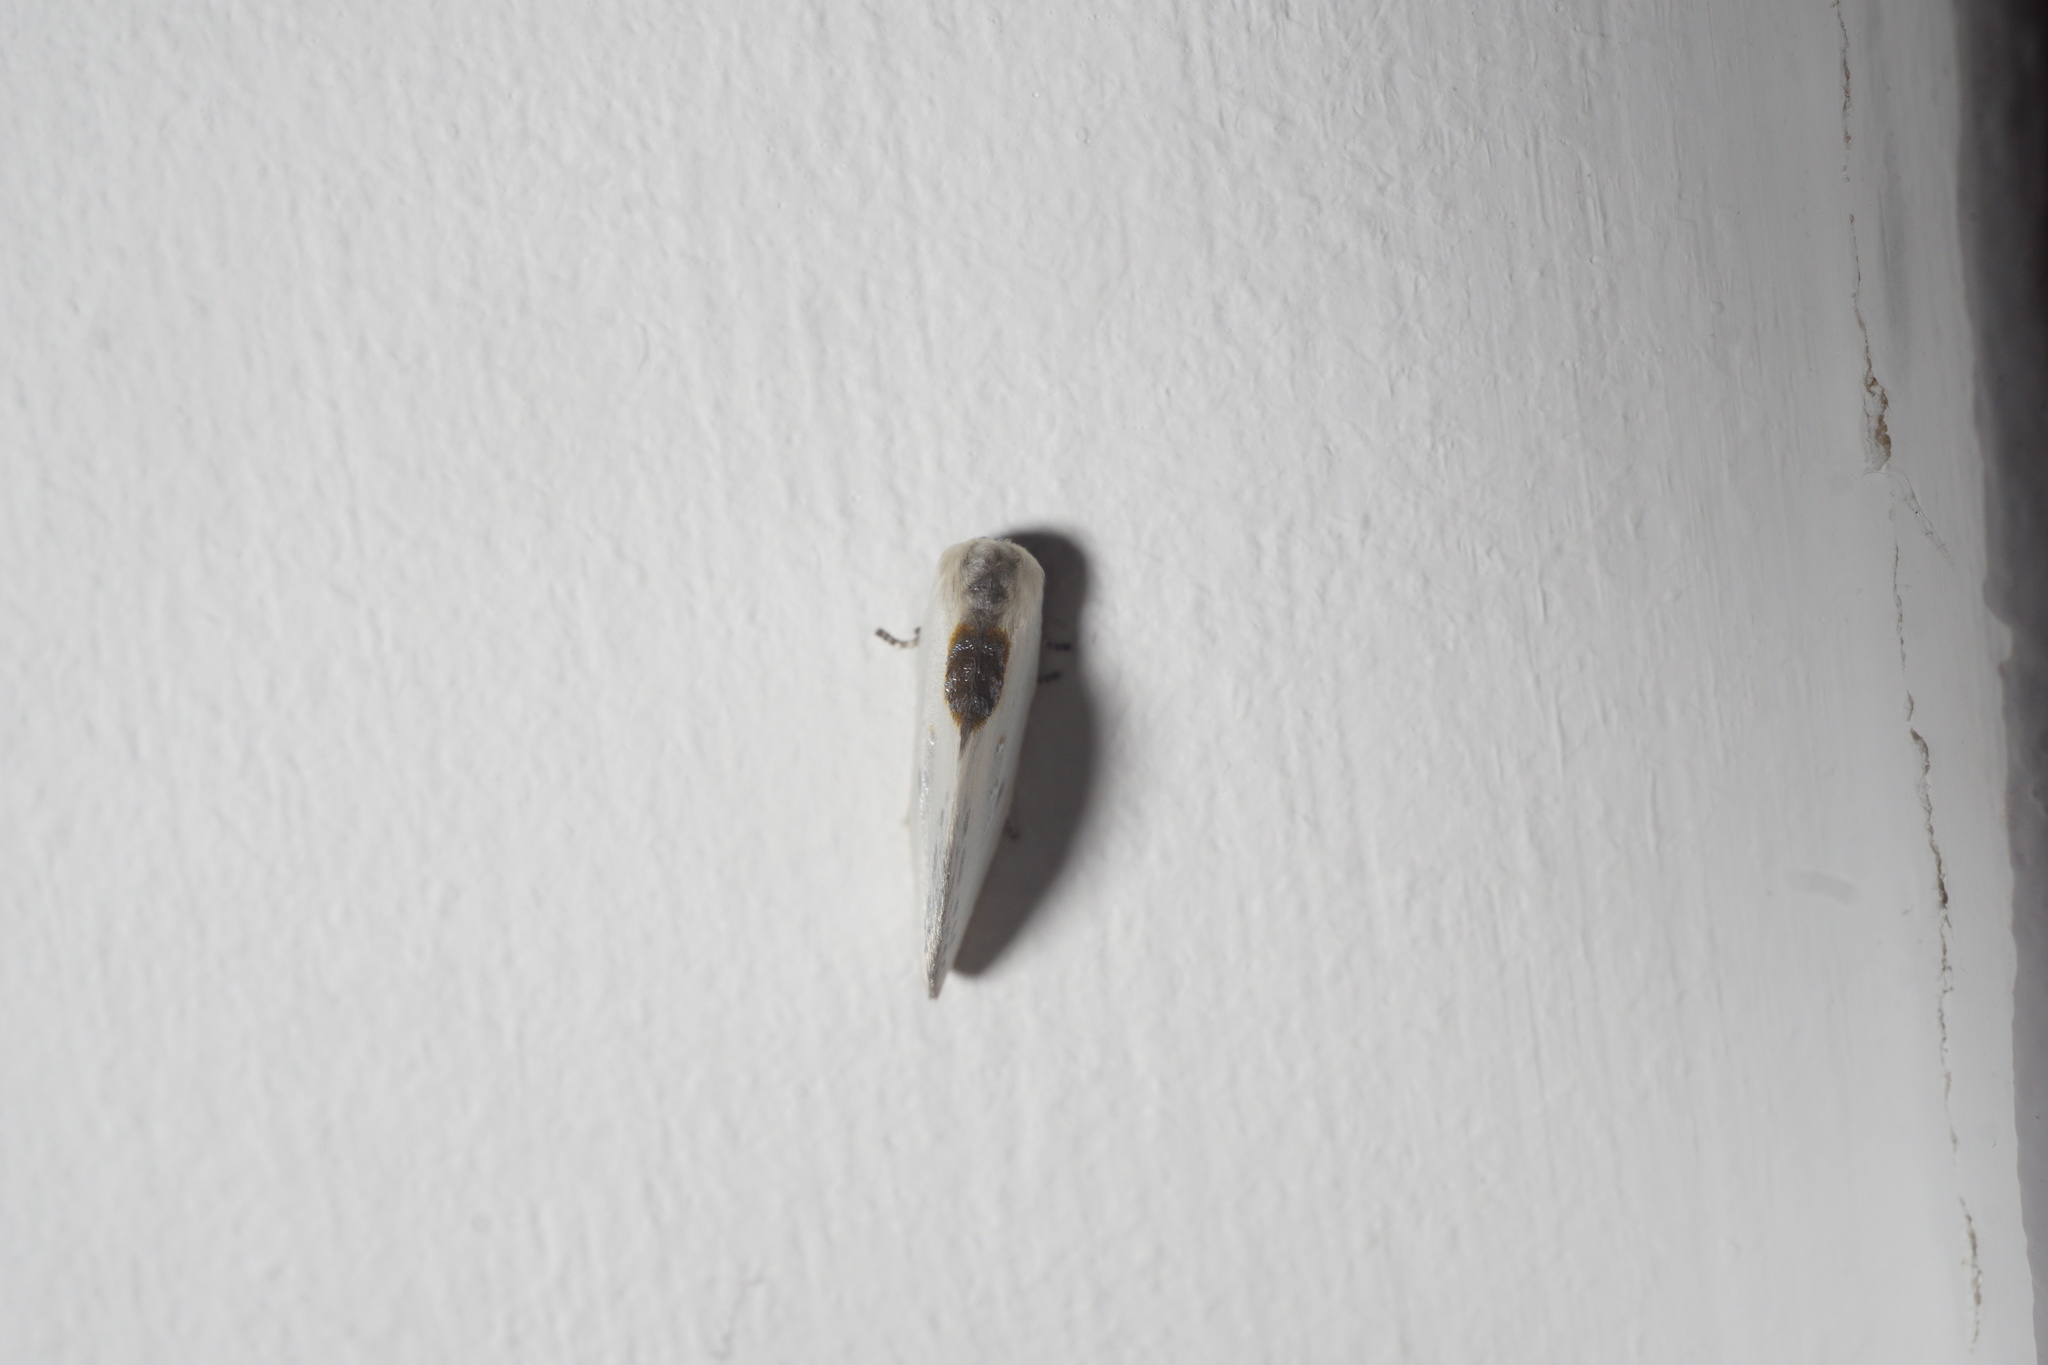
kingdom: Animalia
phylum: Arthropoda
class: Insecta
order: Lepidoptera
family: Drepanidae
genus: Cilix
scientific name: Cilix glaucata
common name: Chinese character
